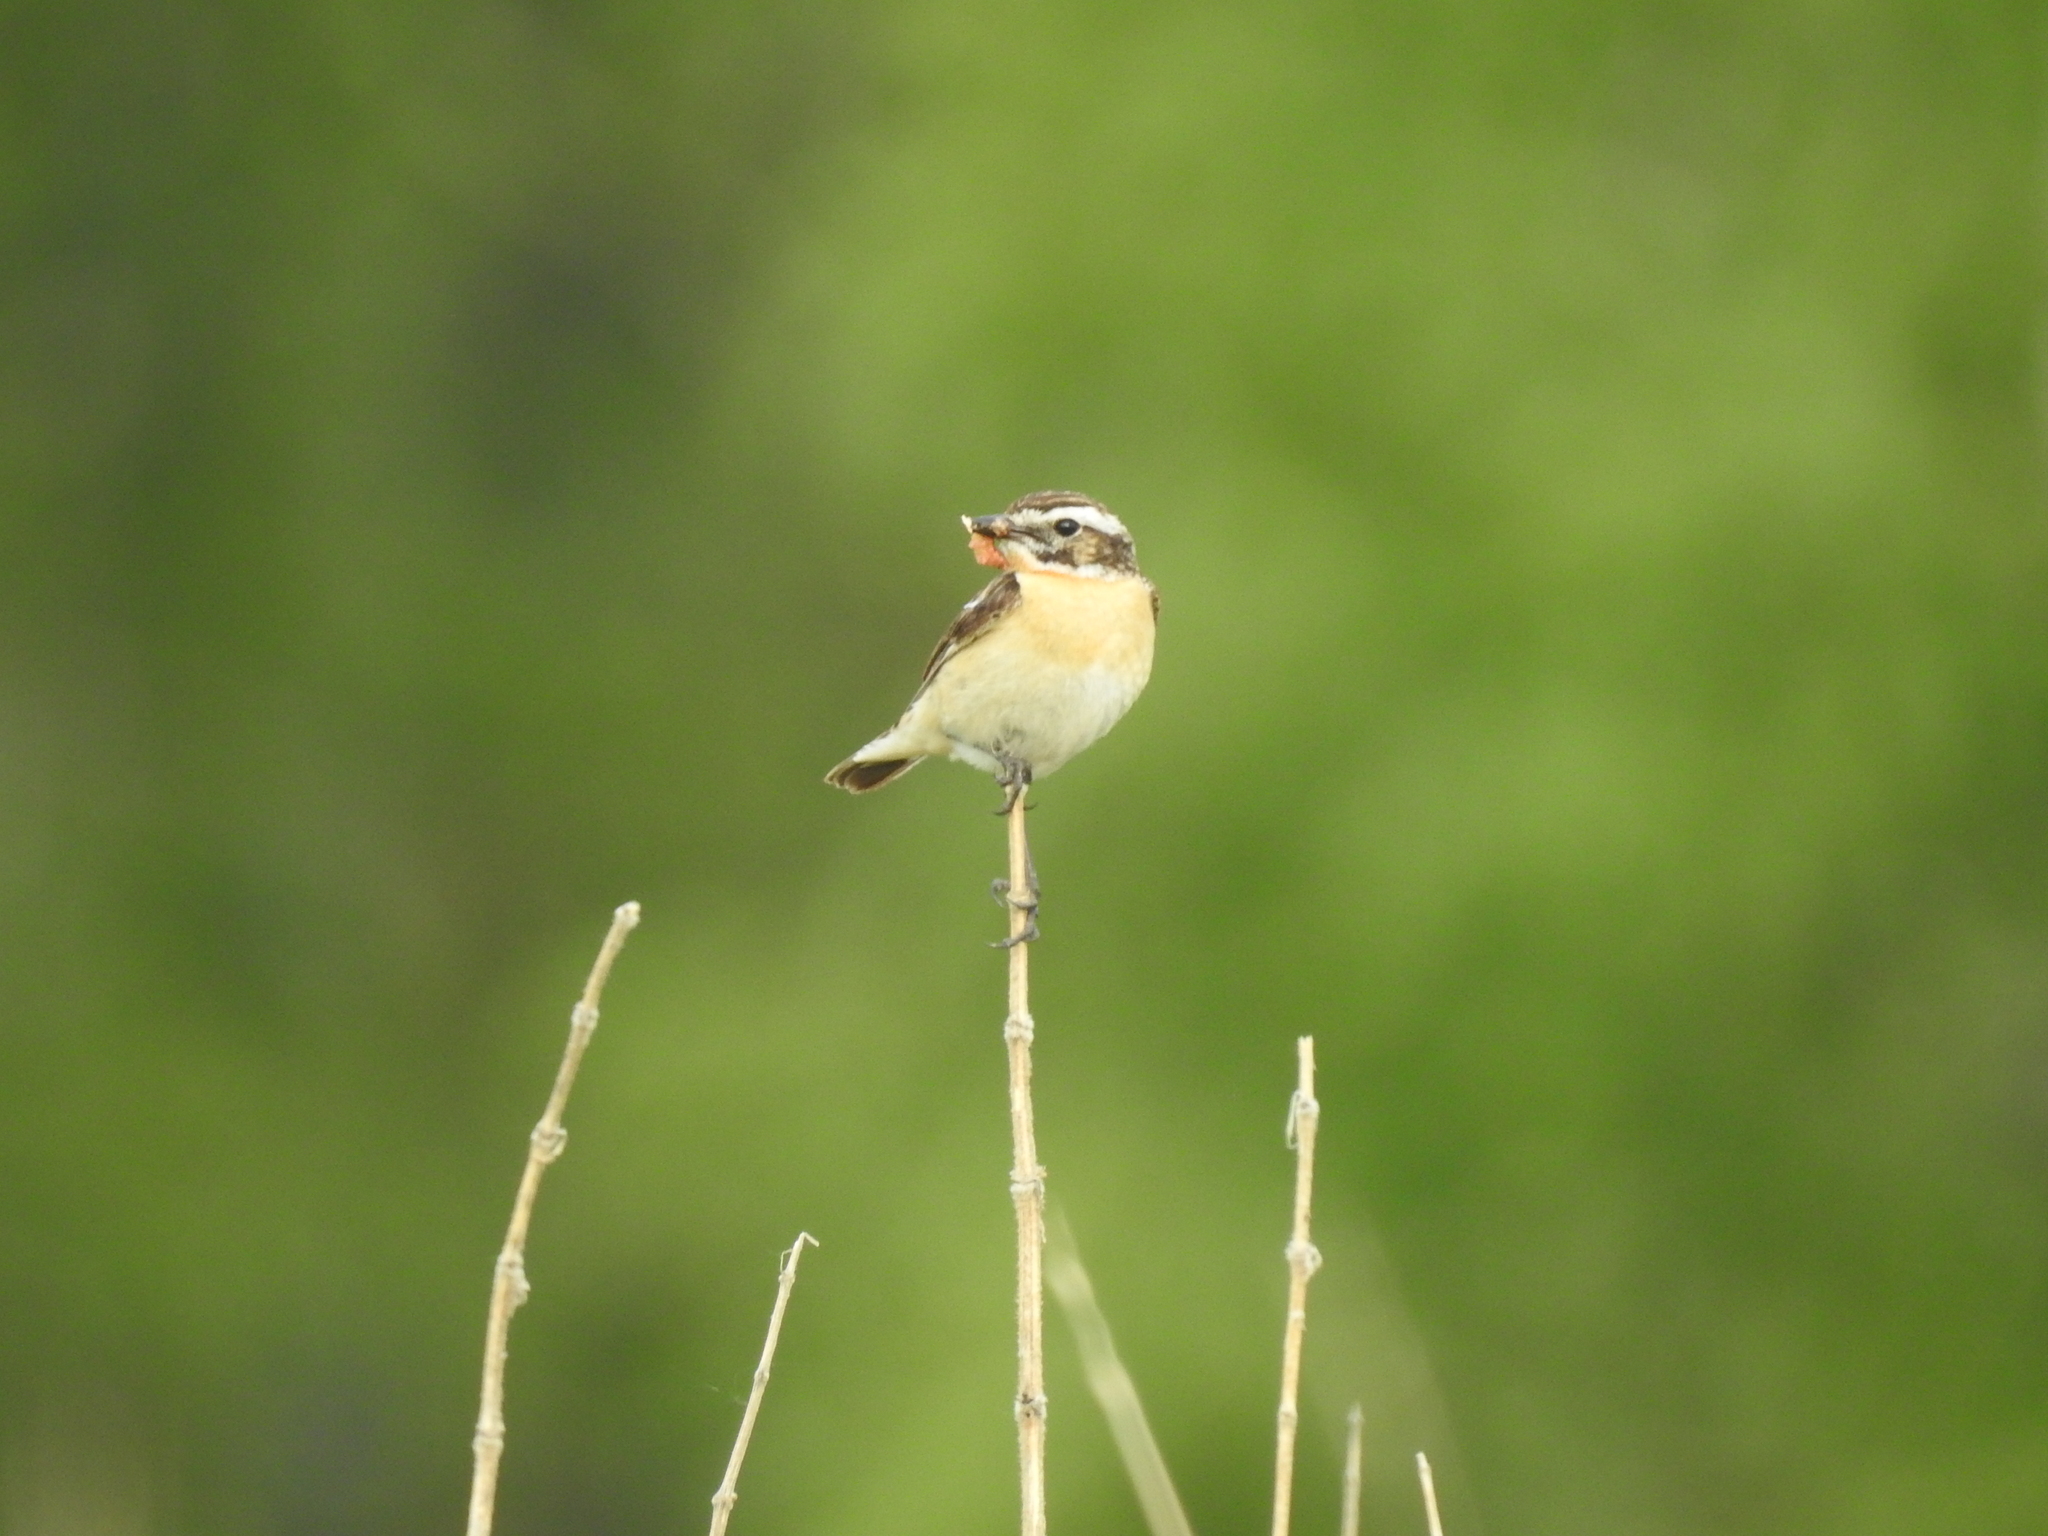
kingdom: Animalia
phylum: Chordata
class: Aves
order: Passeriformes
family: Muscicapidae
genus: Saxicola
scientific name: Saxicola rubetra
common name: Whinchat
